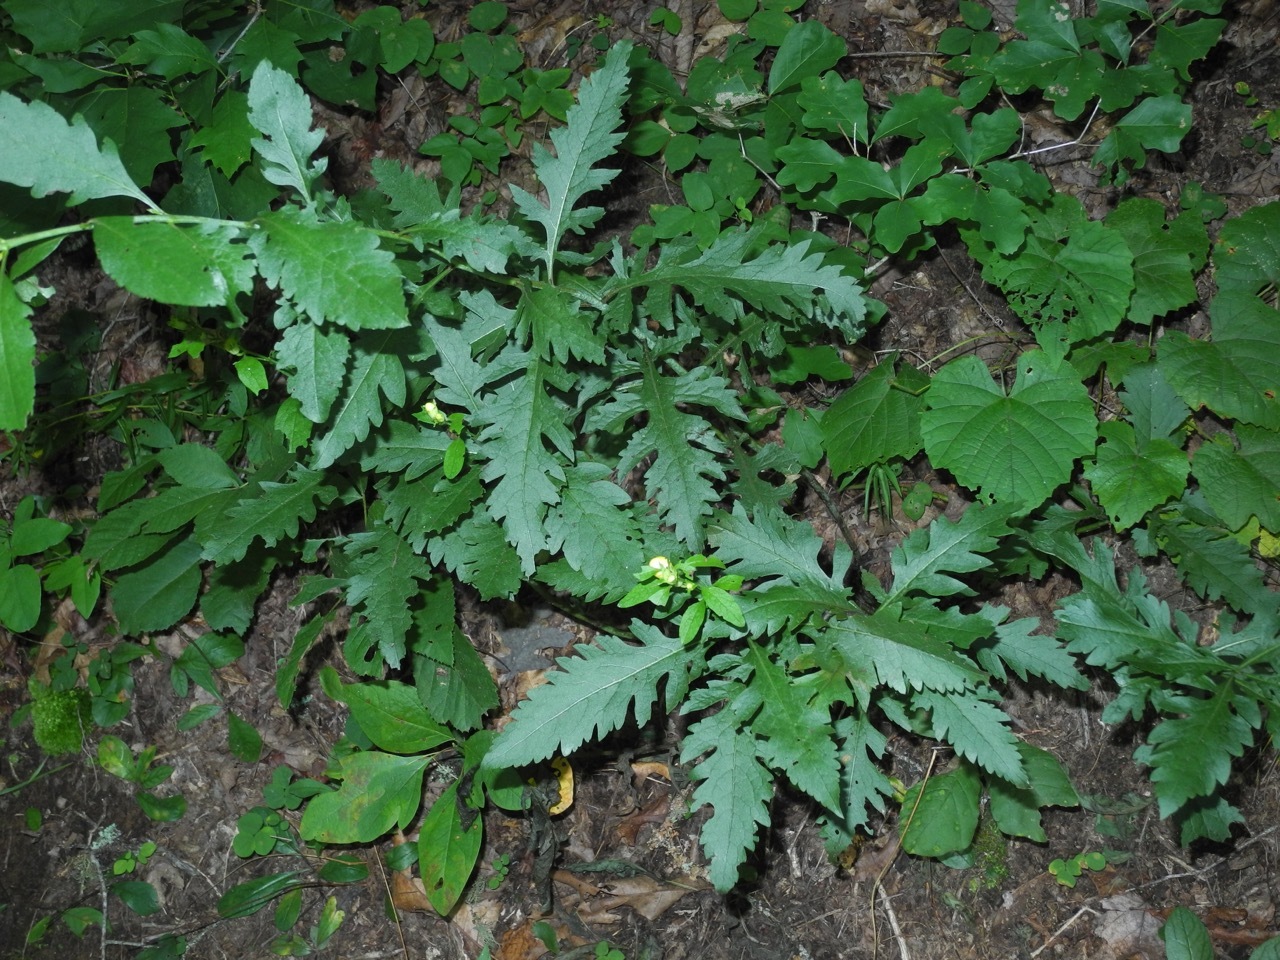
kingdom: Plantae
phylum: Tracheophyta
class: Magnoliopsida
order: Lamiales
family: Orobanchaceae
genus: Aureolaria
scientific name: Aureolaria flava
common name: Smooth false foxglove
